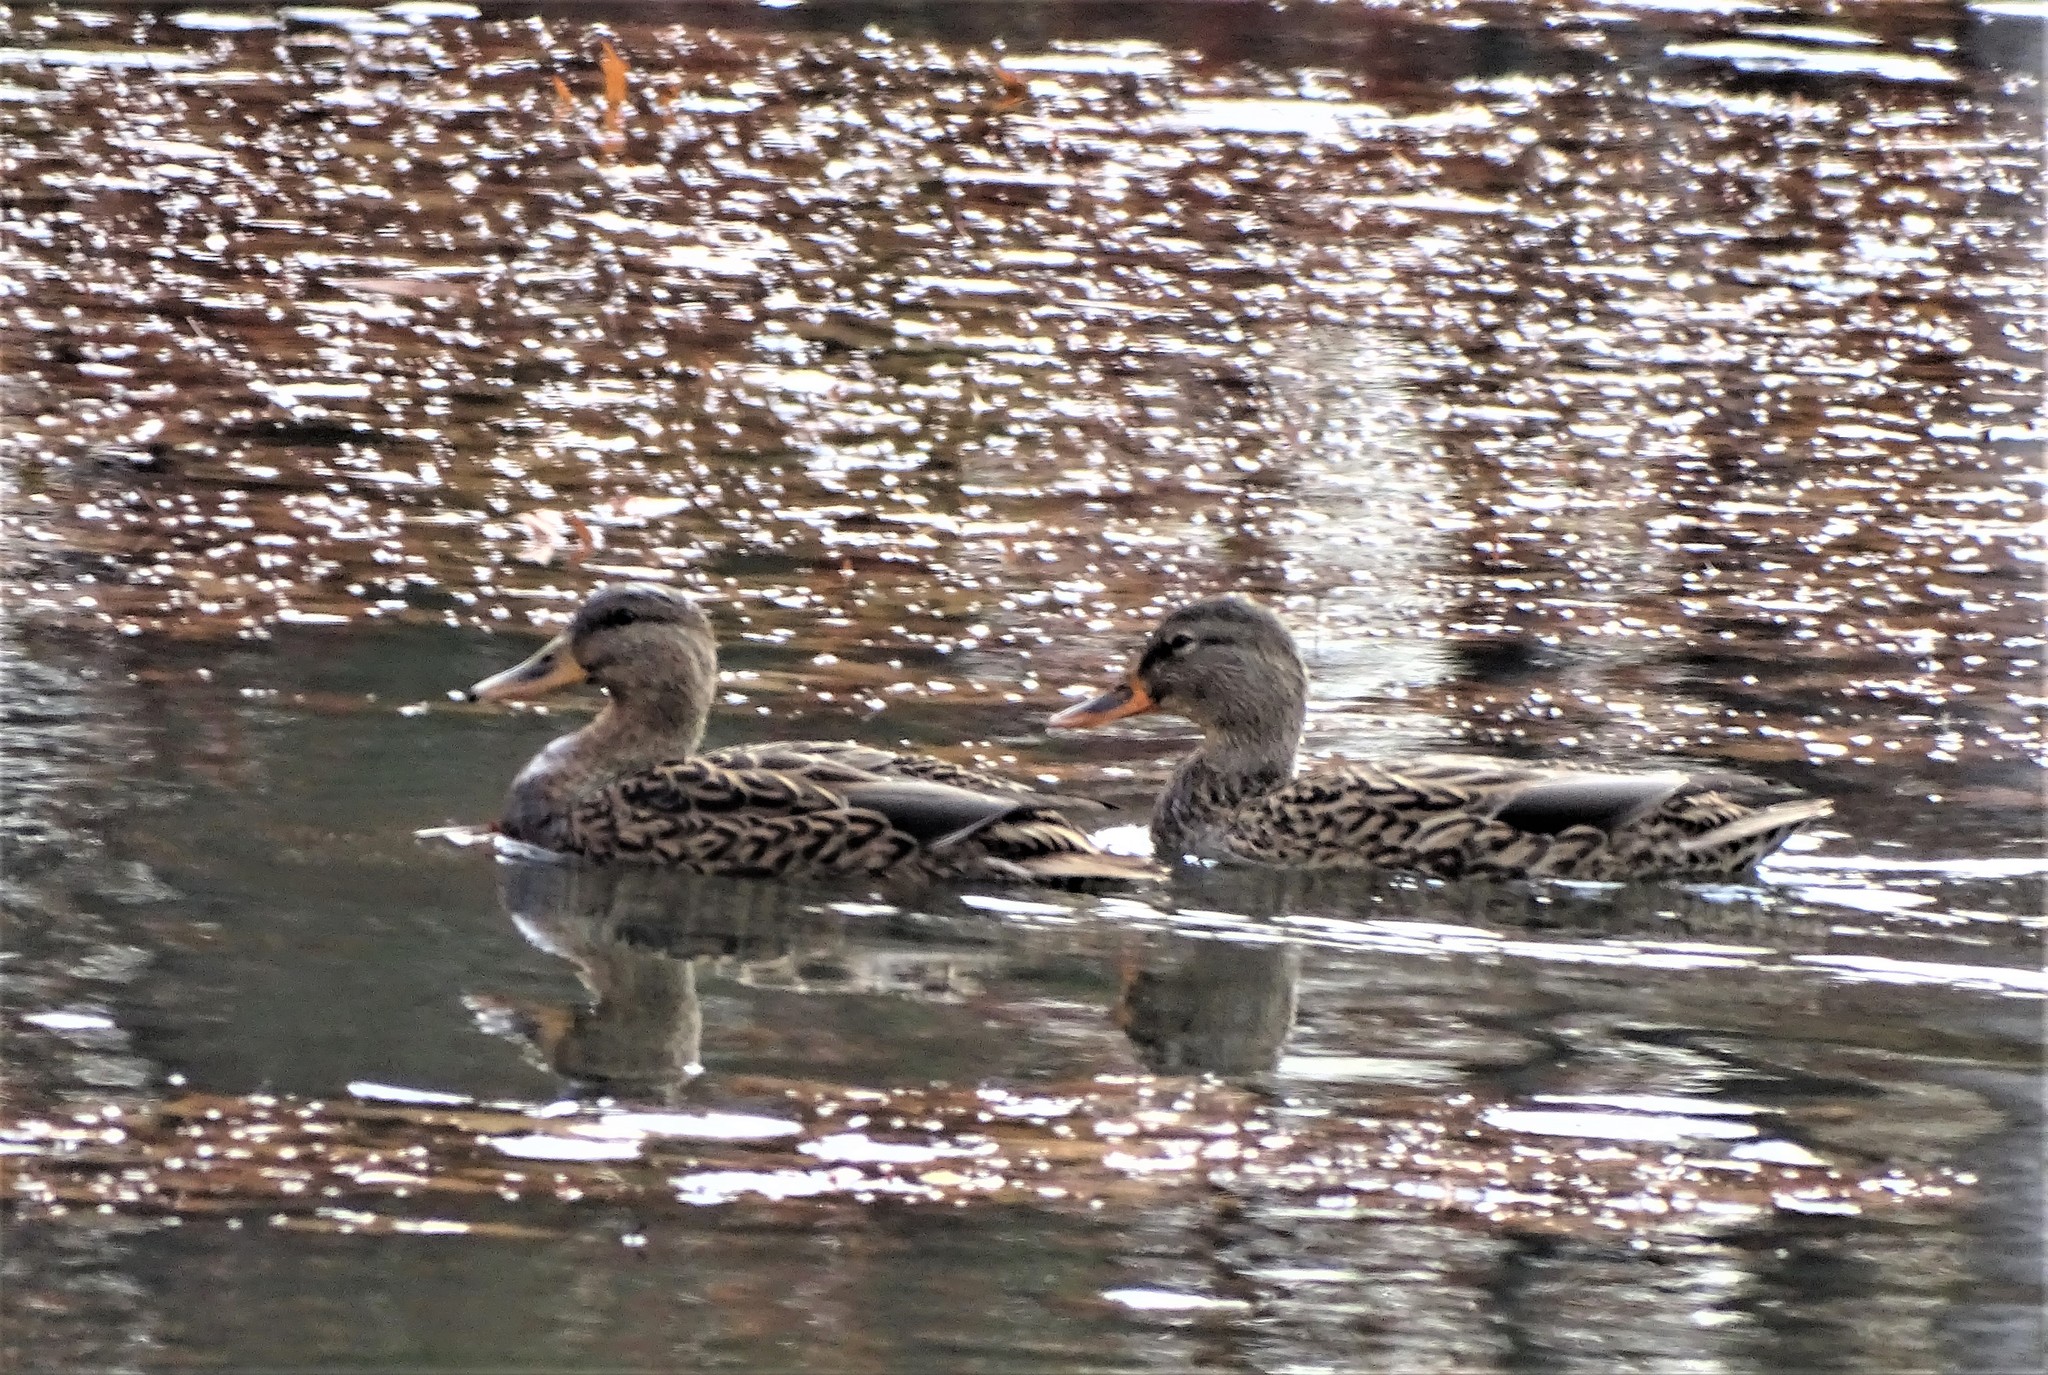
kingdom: Animalia
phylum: Chordata
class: Aves
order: Anseriformes
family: Anatidae
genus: Anas
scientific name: Anas platyrhynchos
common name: Mallard
